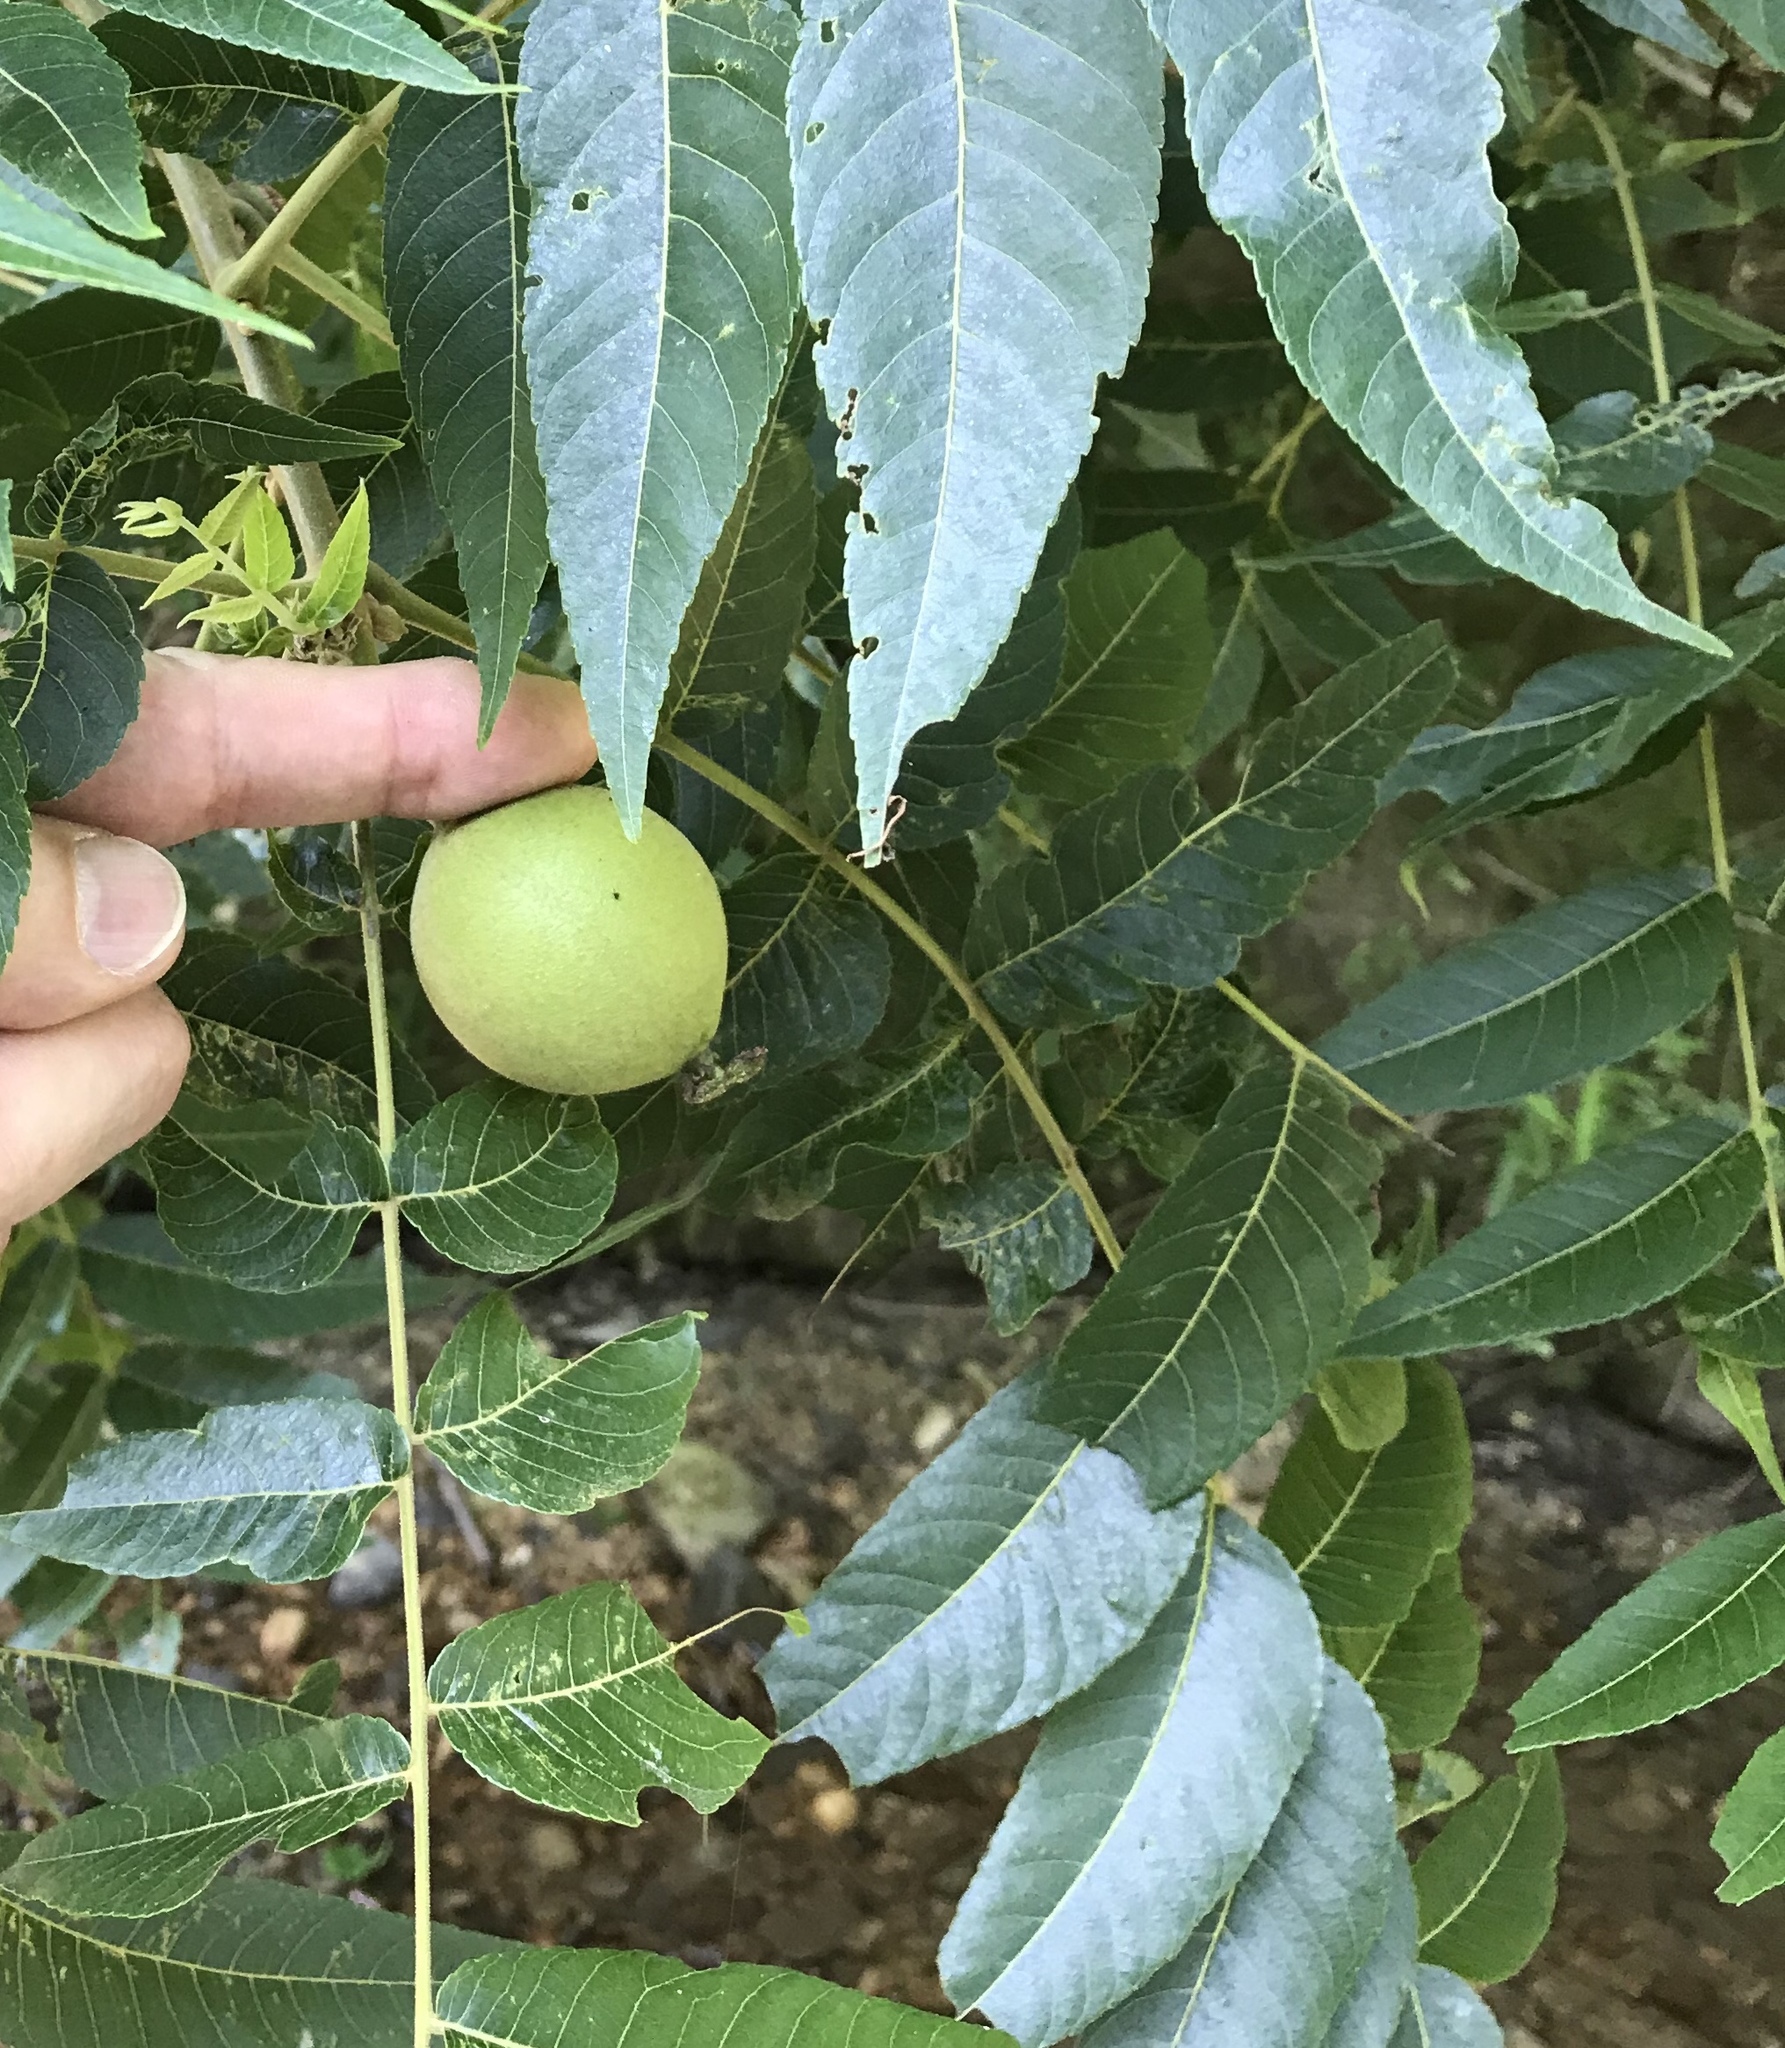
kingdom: Plantae
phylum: Tracheophyta
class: Magnoliopsida
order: Fagales
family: Juglandaceae
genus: Juglans
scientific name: Juglans major
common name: Arizona walnut
